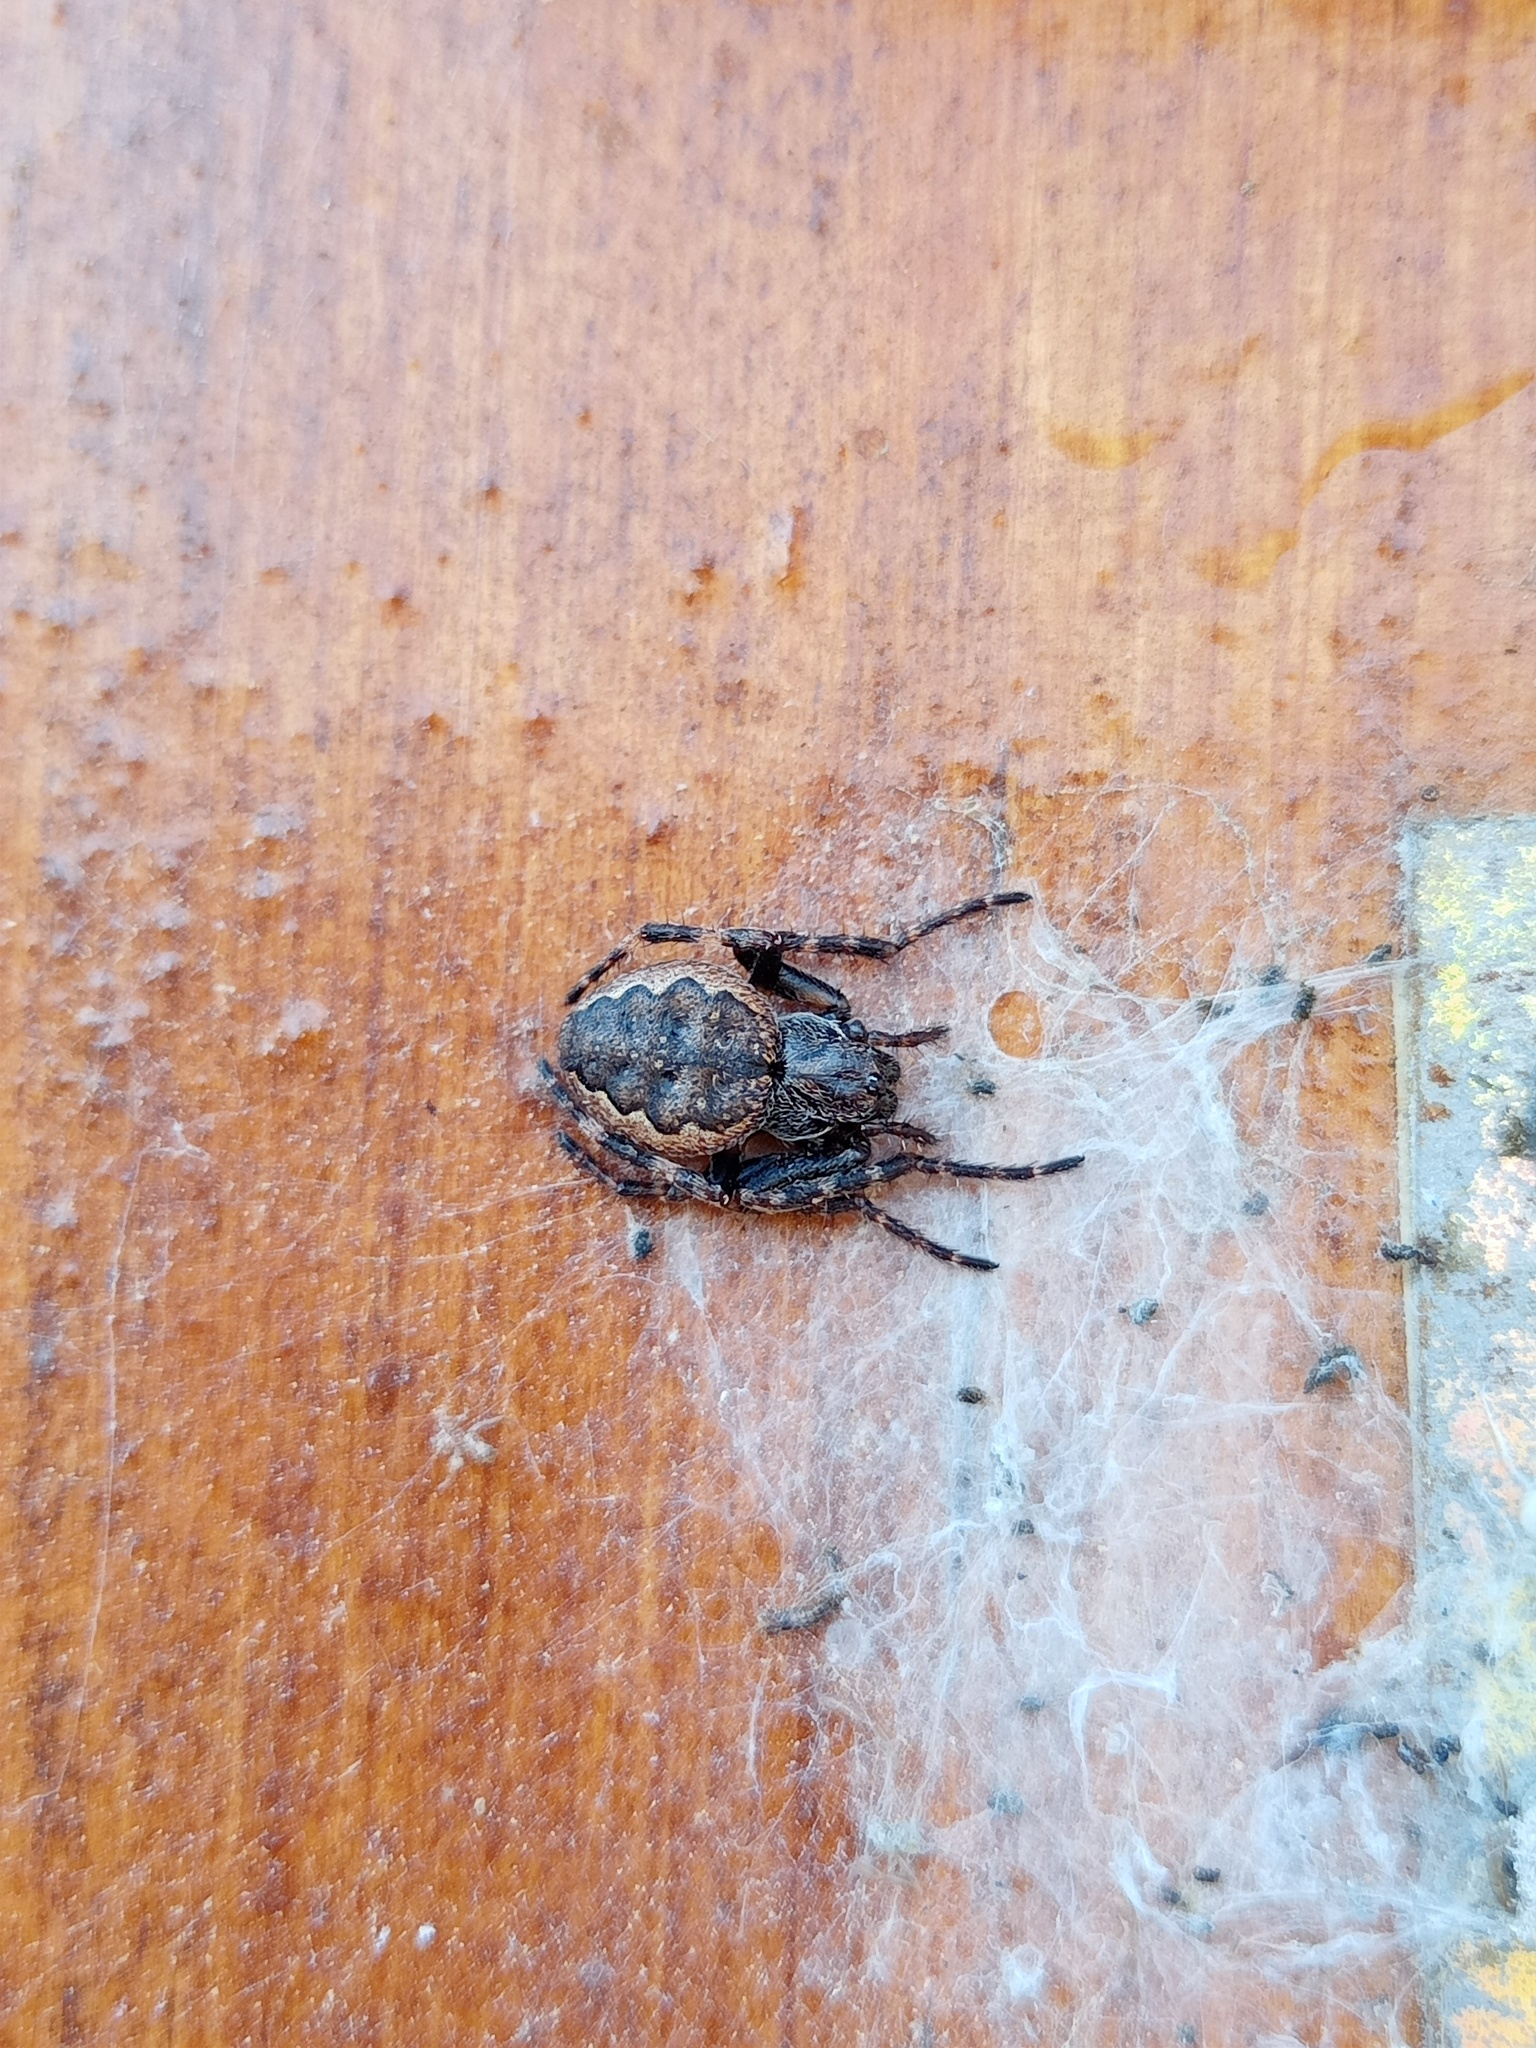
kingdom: Animalia
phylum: Arthropoda
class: Arachnida
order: Araneae
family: Araneidae
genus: Nuctenea
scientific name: Nuctenea umbratica
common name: Toad spider
